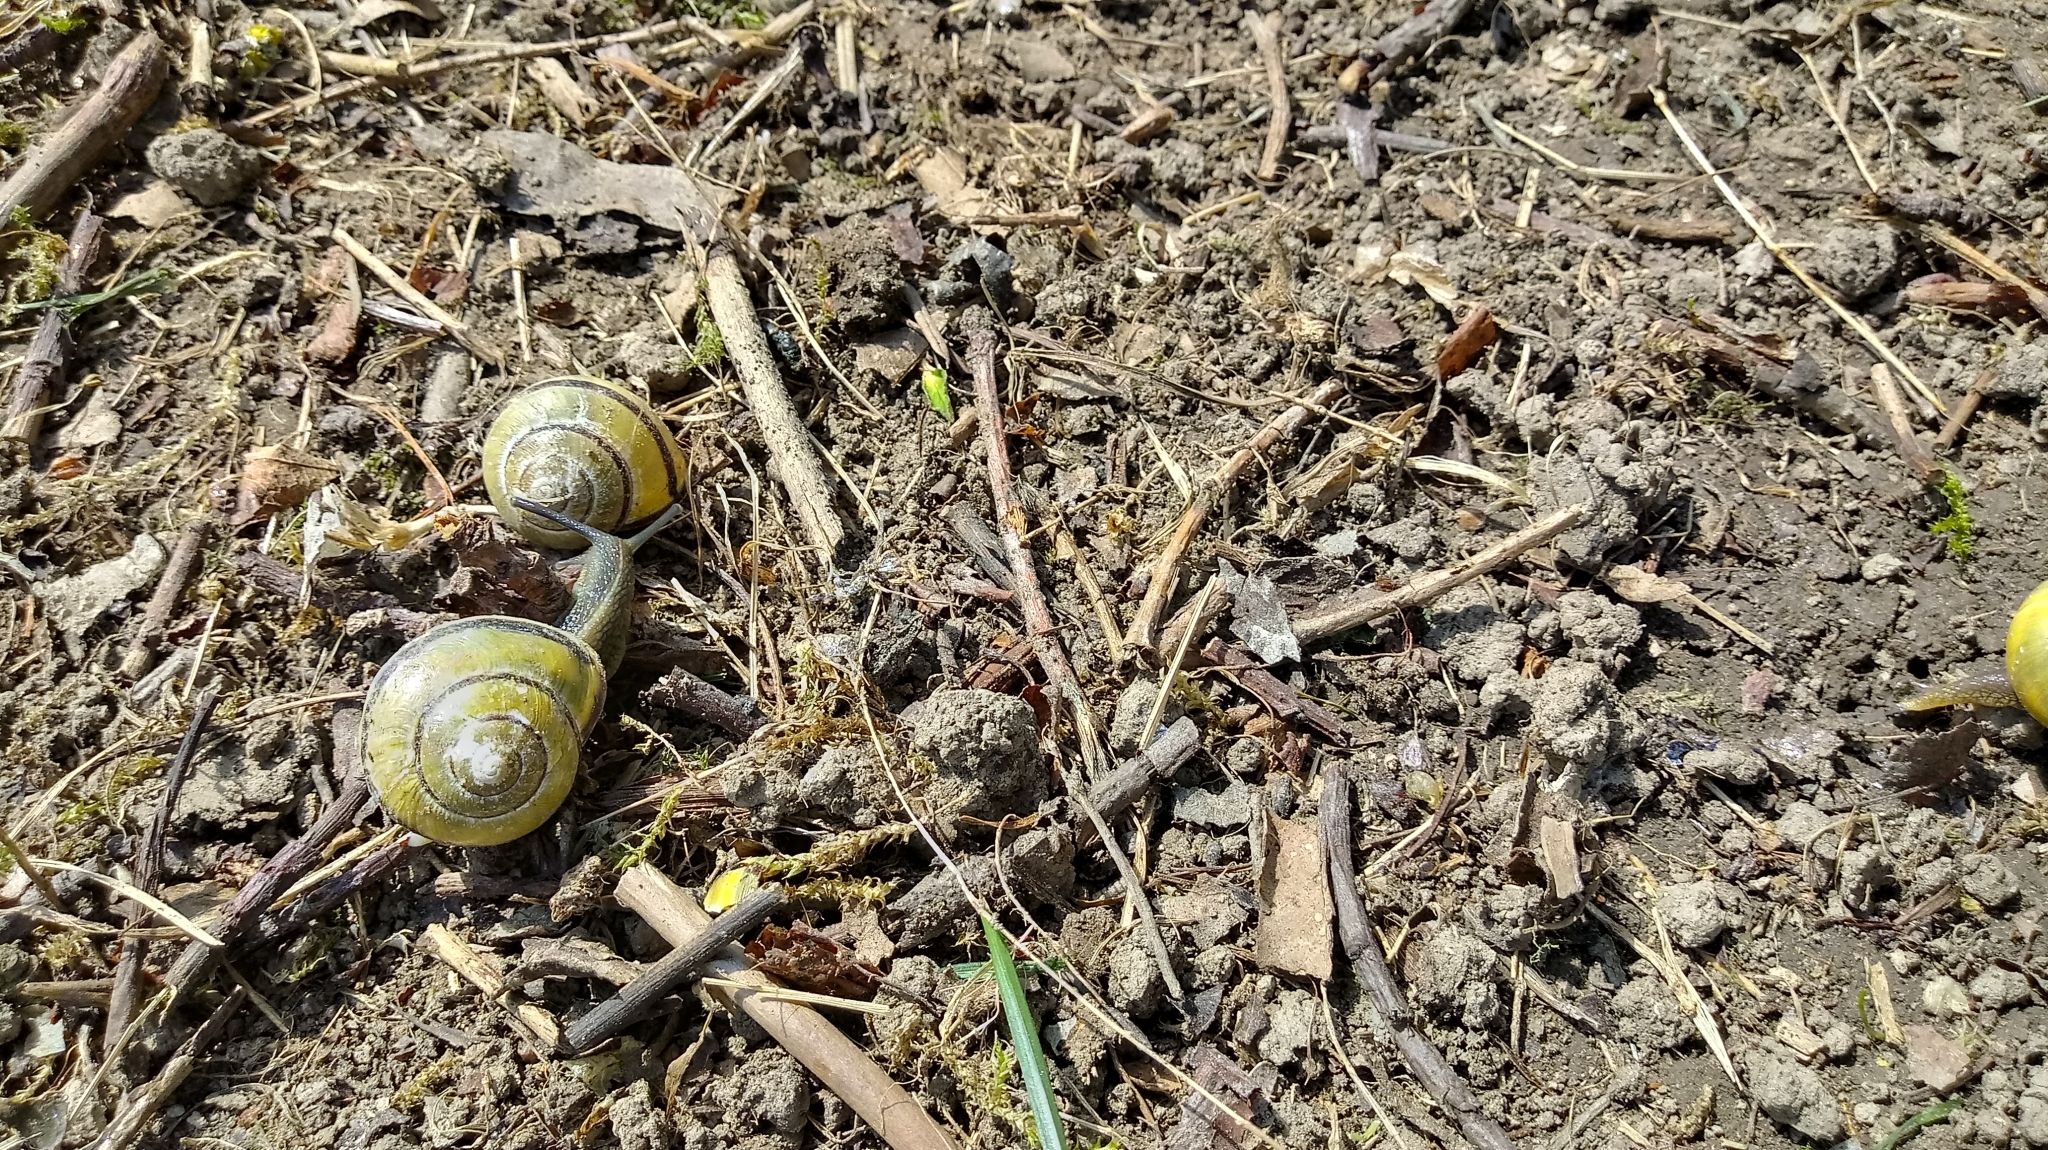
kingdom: Animalia
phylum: Mollusca
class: Gastropoda
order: Stylommatophora
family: Helicidae
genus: Cepaea
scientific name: Cepaea nemoralis
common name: Grovesnail
